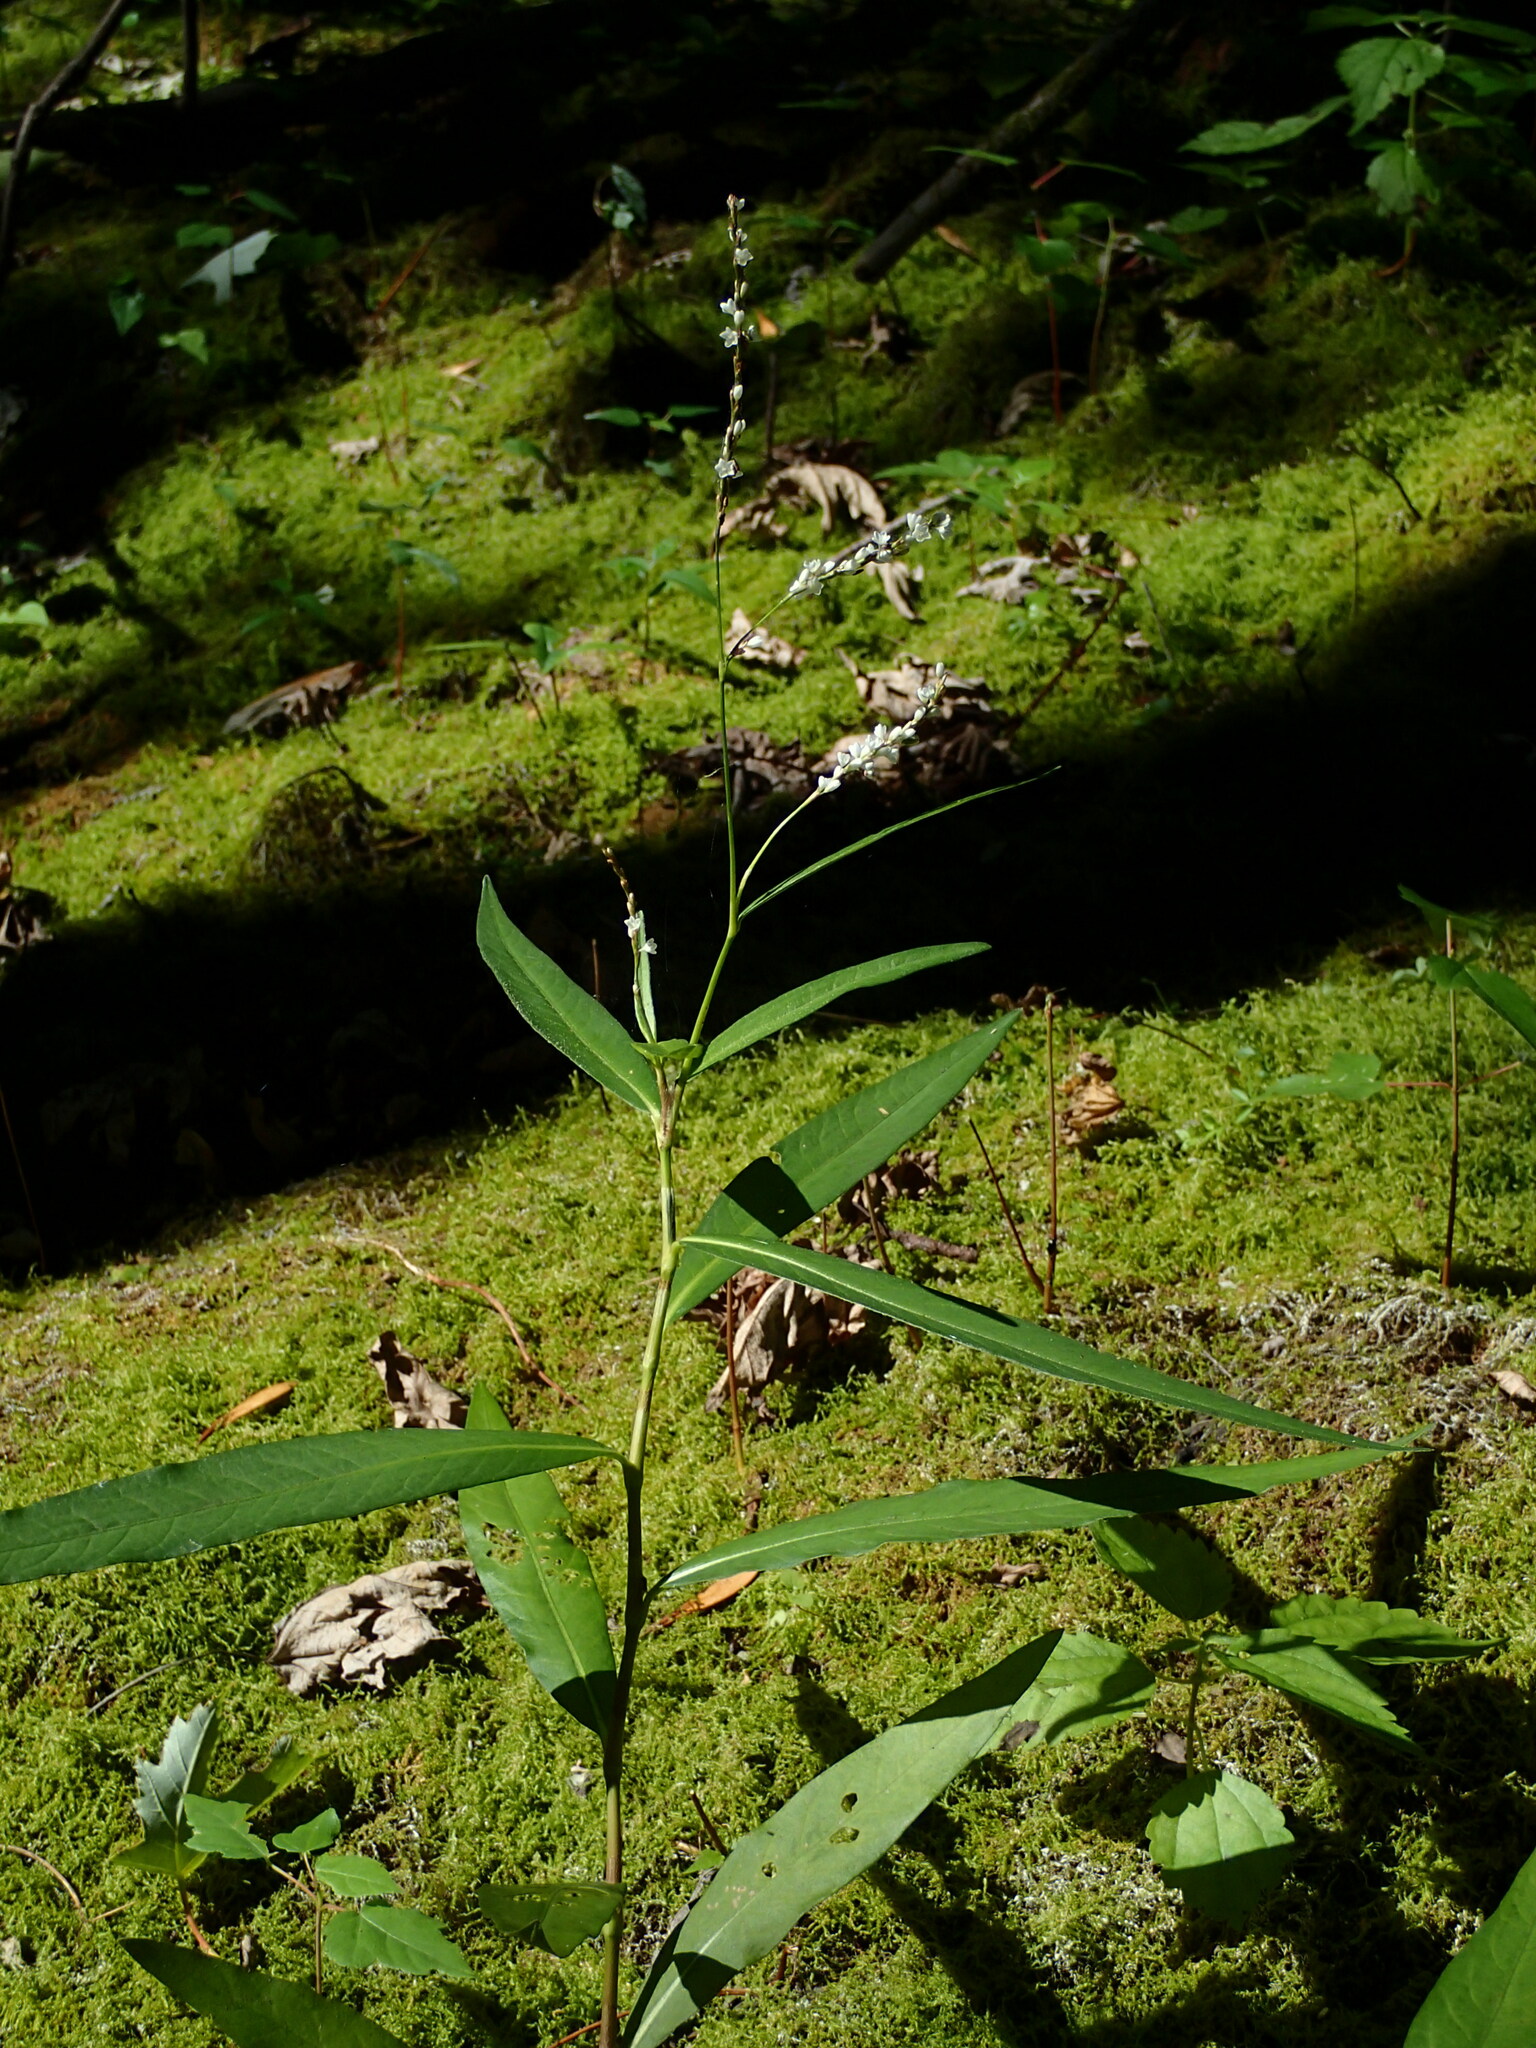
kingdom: Plantae
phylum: Tracheophyta
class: Magnoliopsida
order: Caryophyllales
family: Polygonaceae
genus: Persicaria
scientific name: Persicaria hydropiperoides
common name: Swamp smartweed
